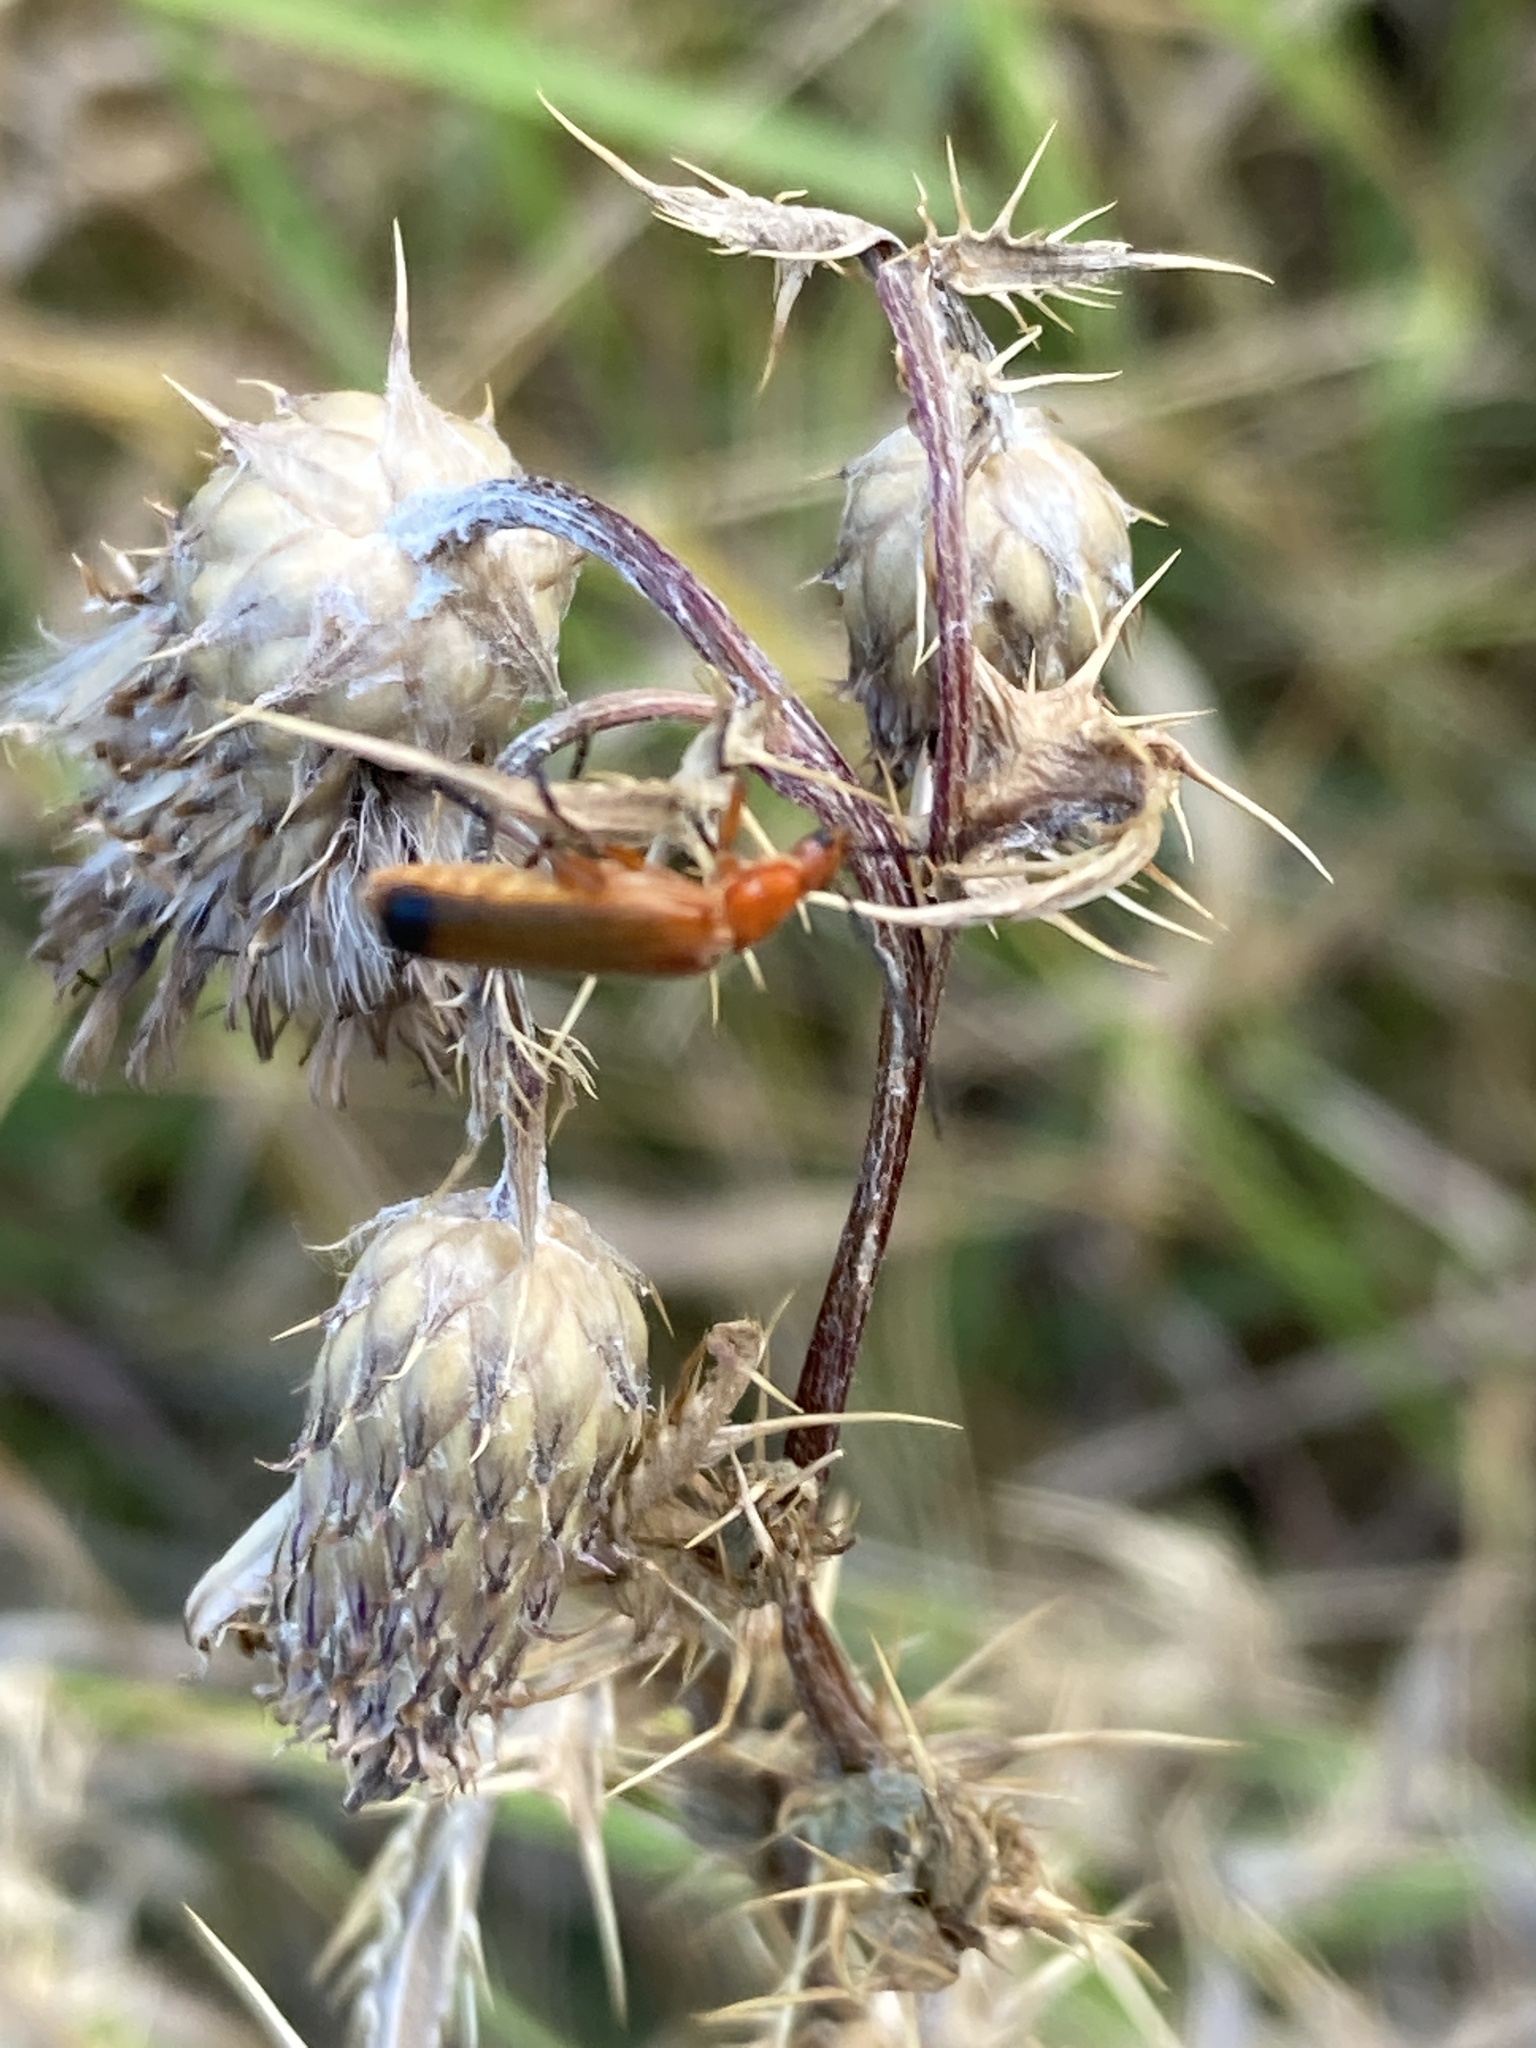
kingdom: Animalia
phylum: Arthropoda
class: Insecta
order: Coleoptera
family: Cantharidae
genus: Rhagonycha
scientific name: Rhagonycha fulva
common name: Common red soldier beetle
